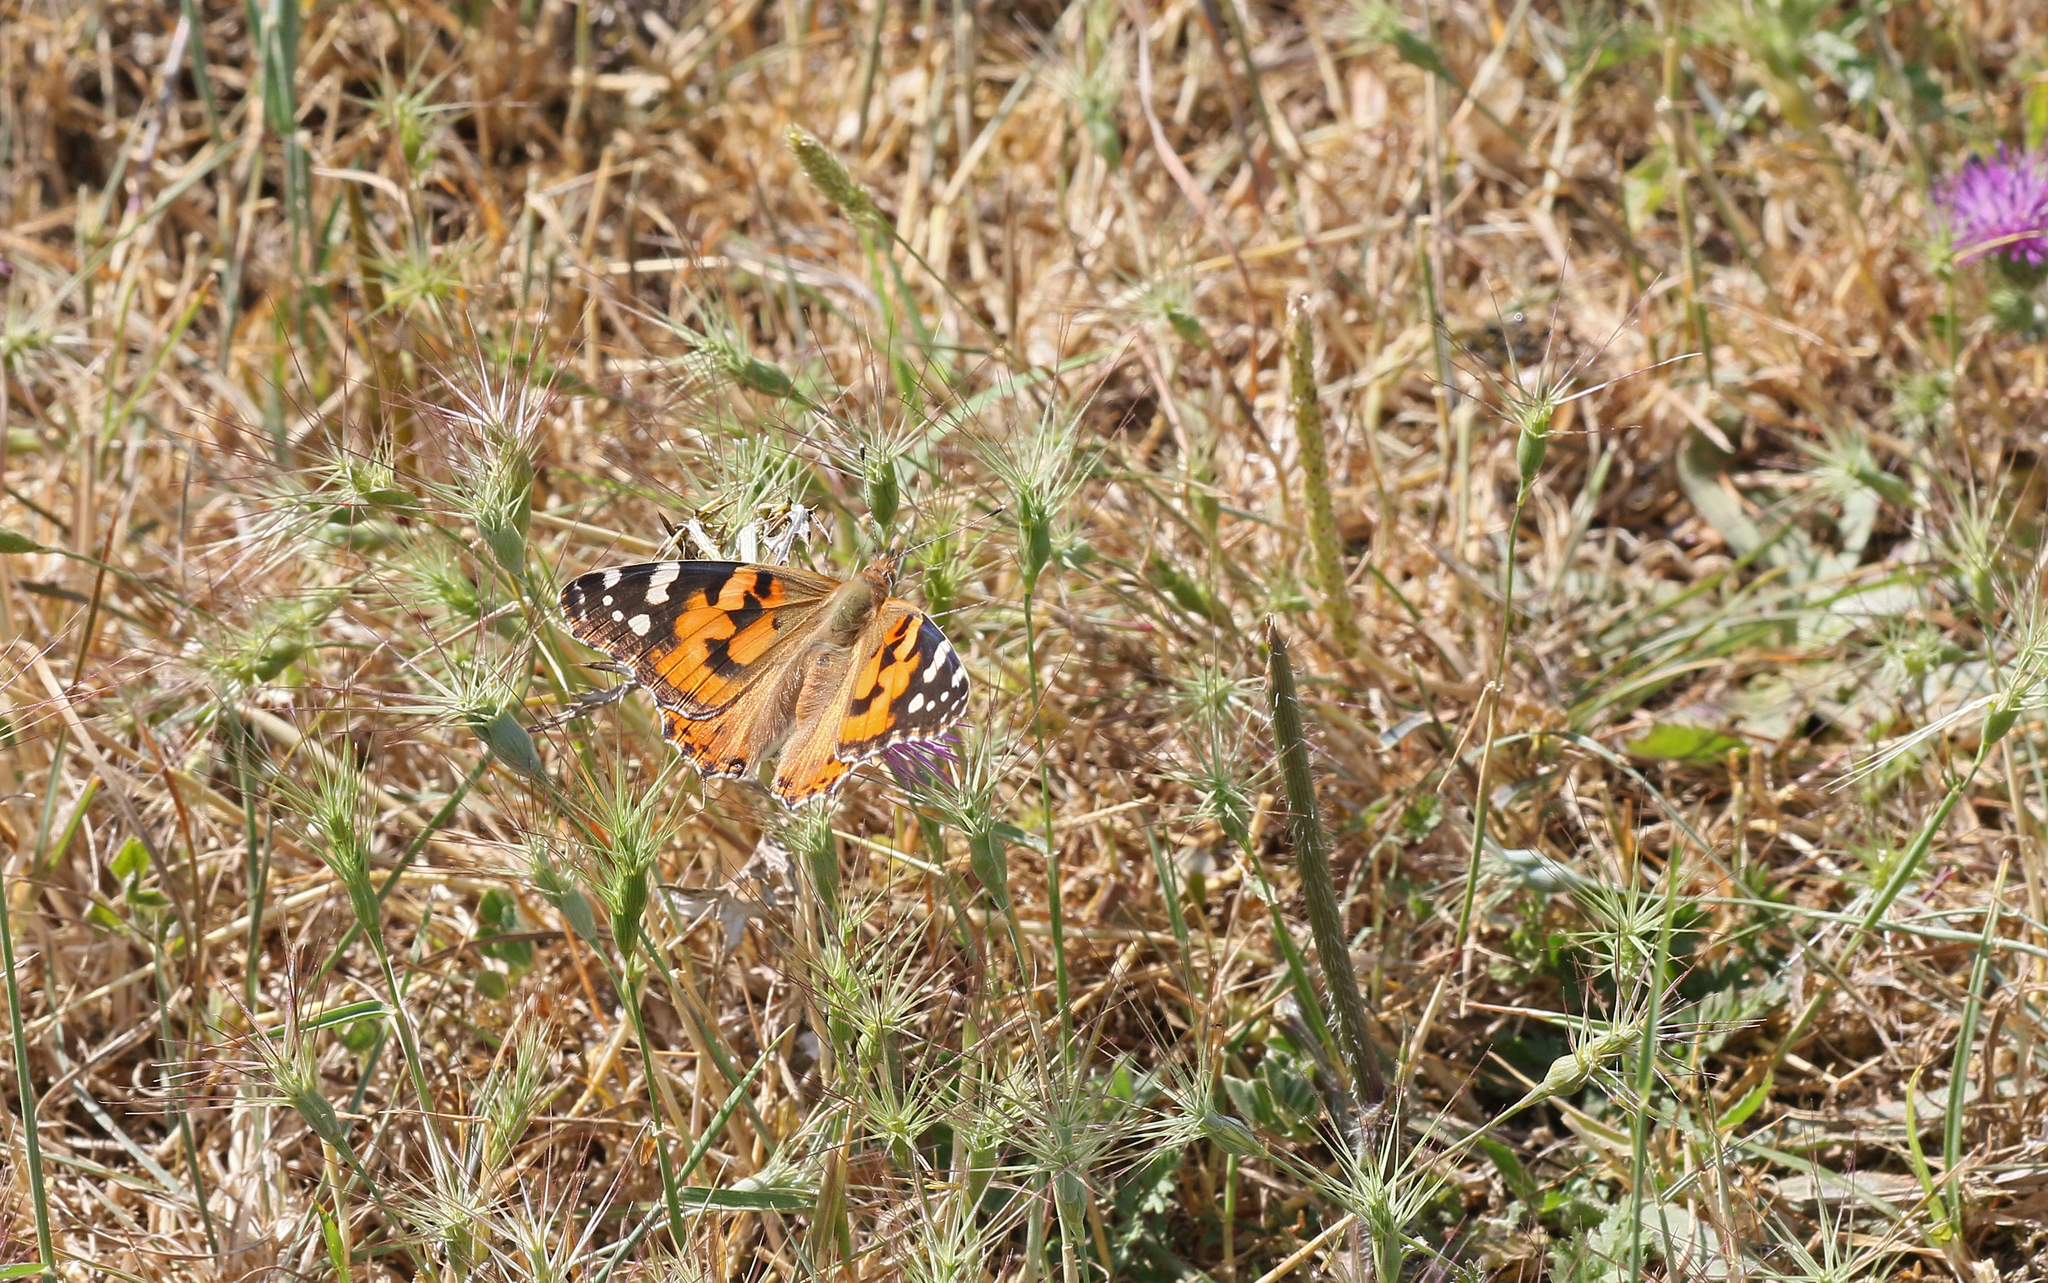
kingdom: Animalia
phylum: Arthropoda
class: Insecta
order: Lepidoptera
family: Nymphalidae
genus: Vanessa
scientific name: Vanessa cardui
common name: Painted lady
